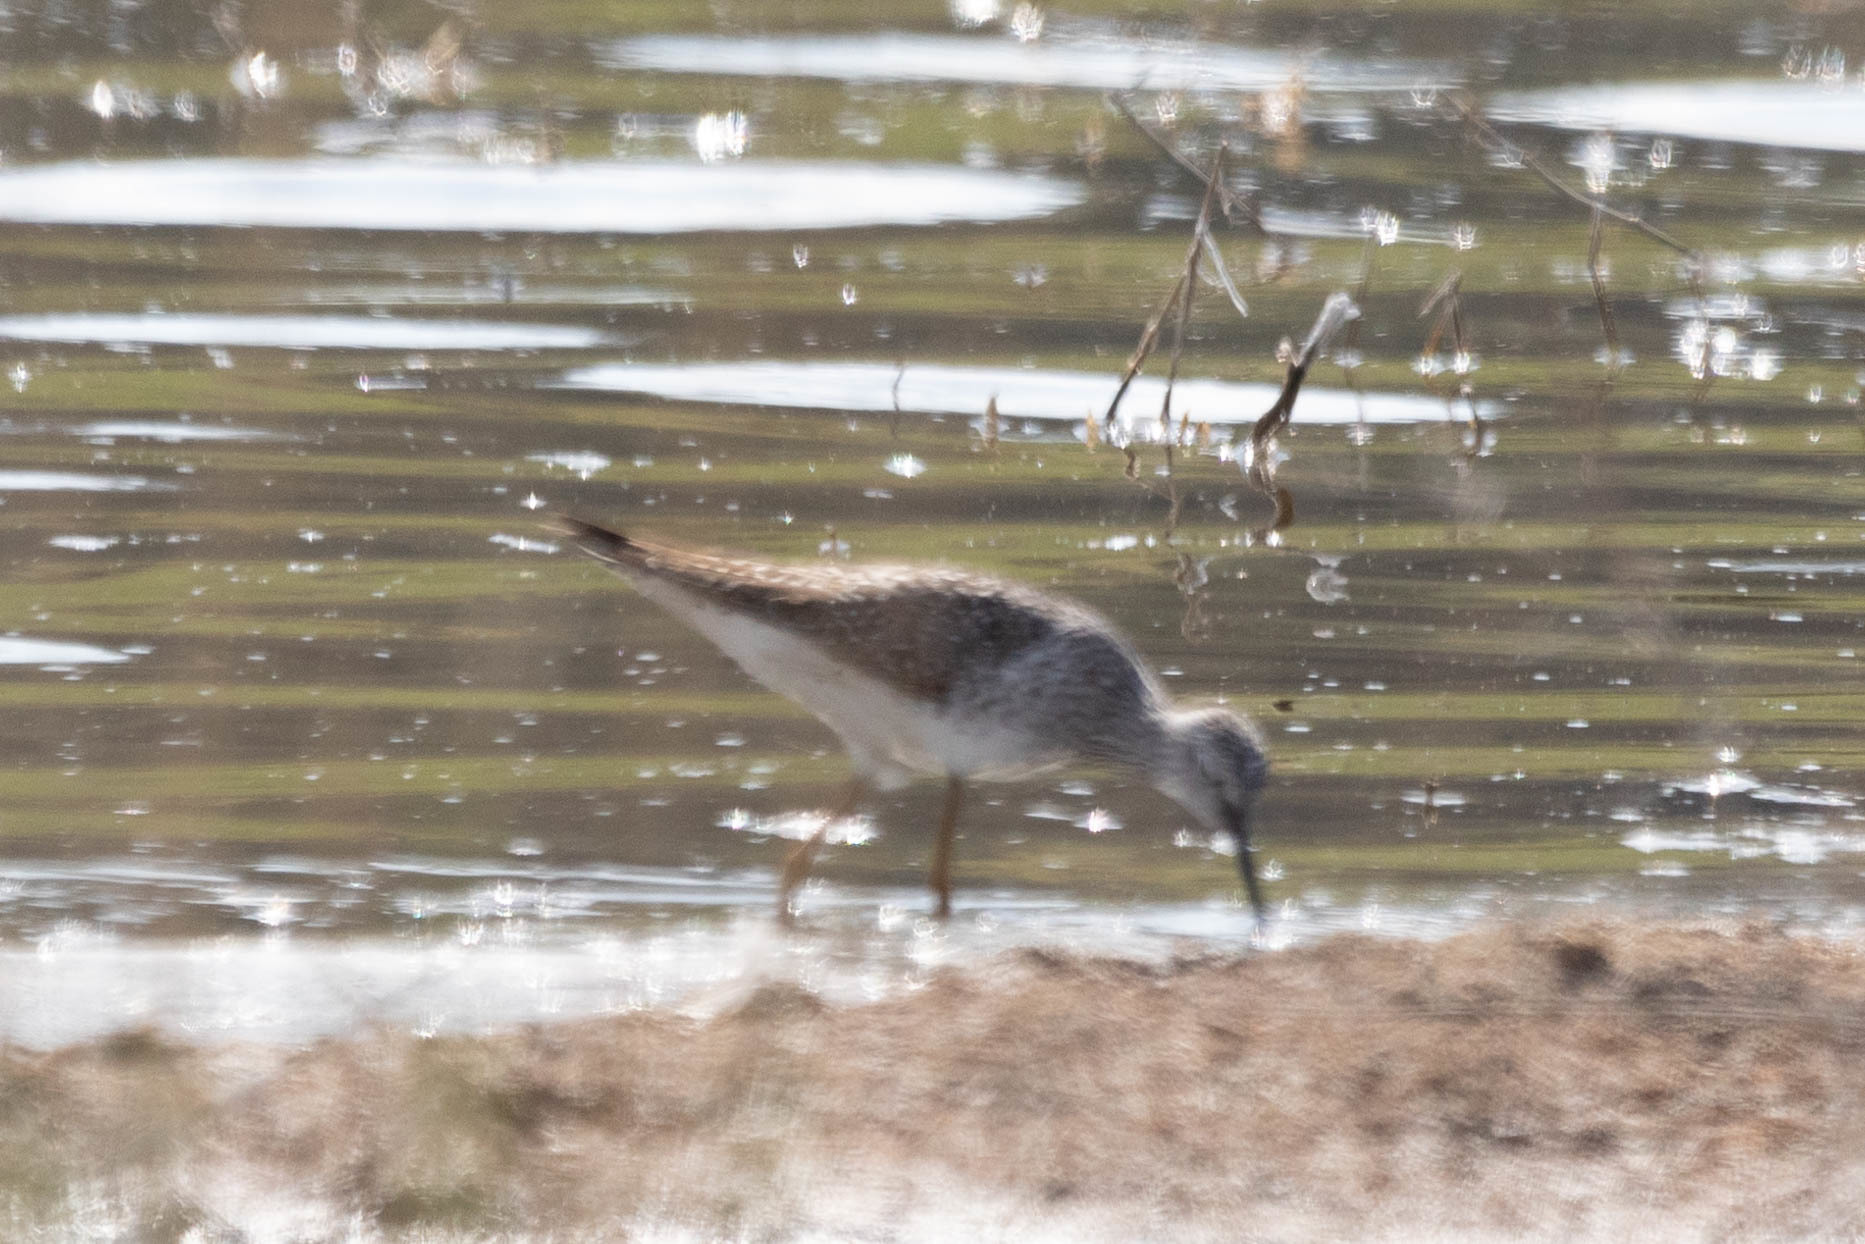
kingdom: Animalia
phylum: Chordata
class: Aves
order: Charadriiformes
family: Scolopacidae
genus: Tringa
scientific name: Tringa flavipes
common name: Lesser yellowlegs
